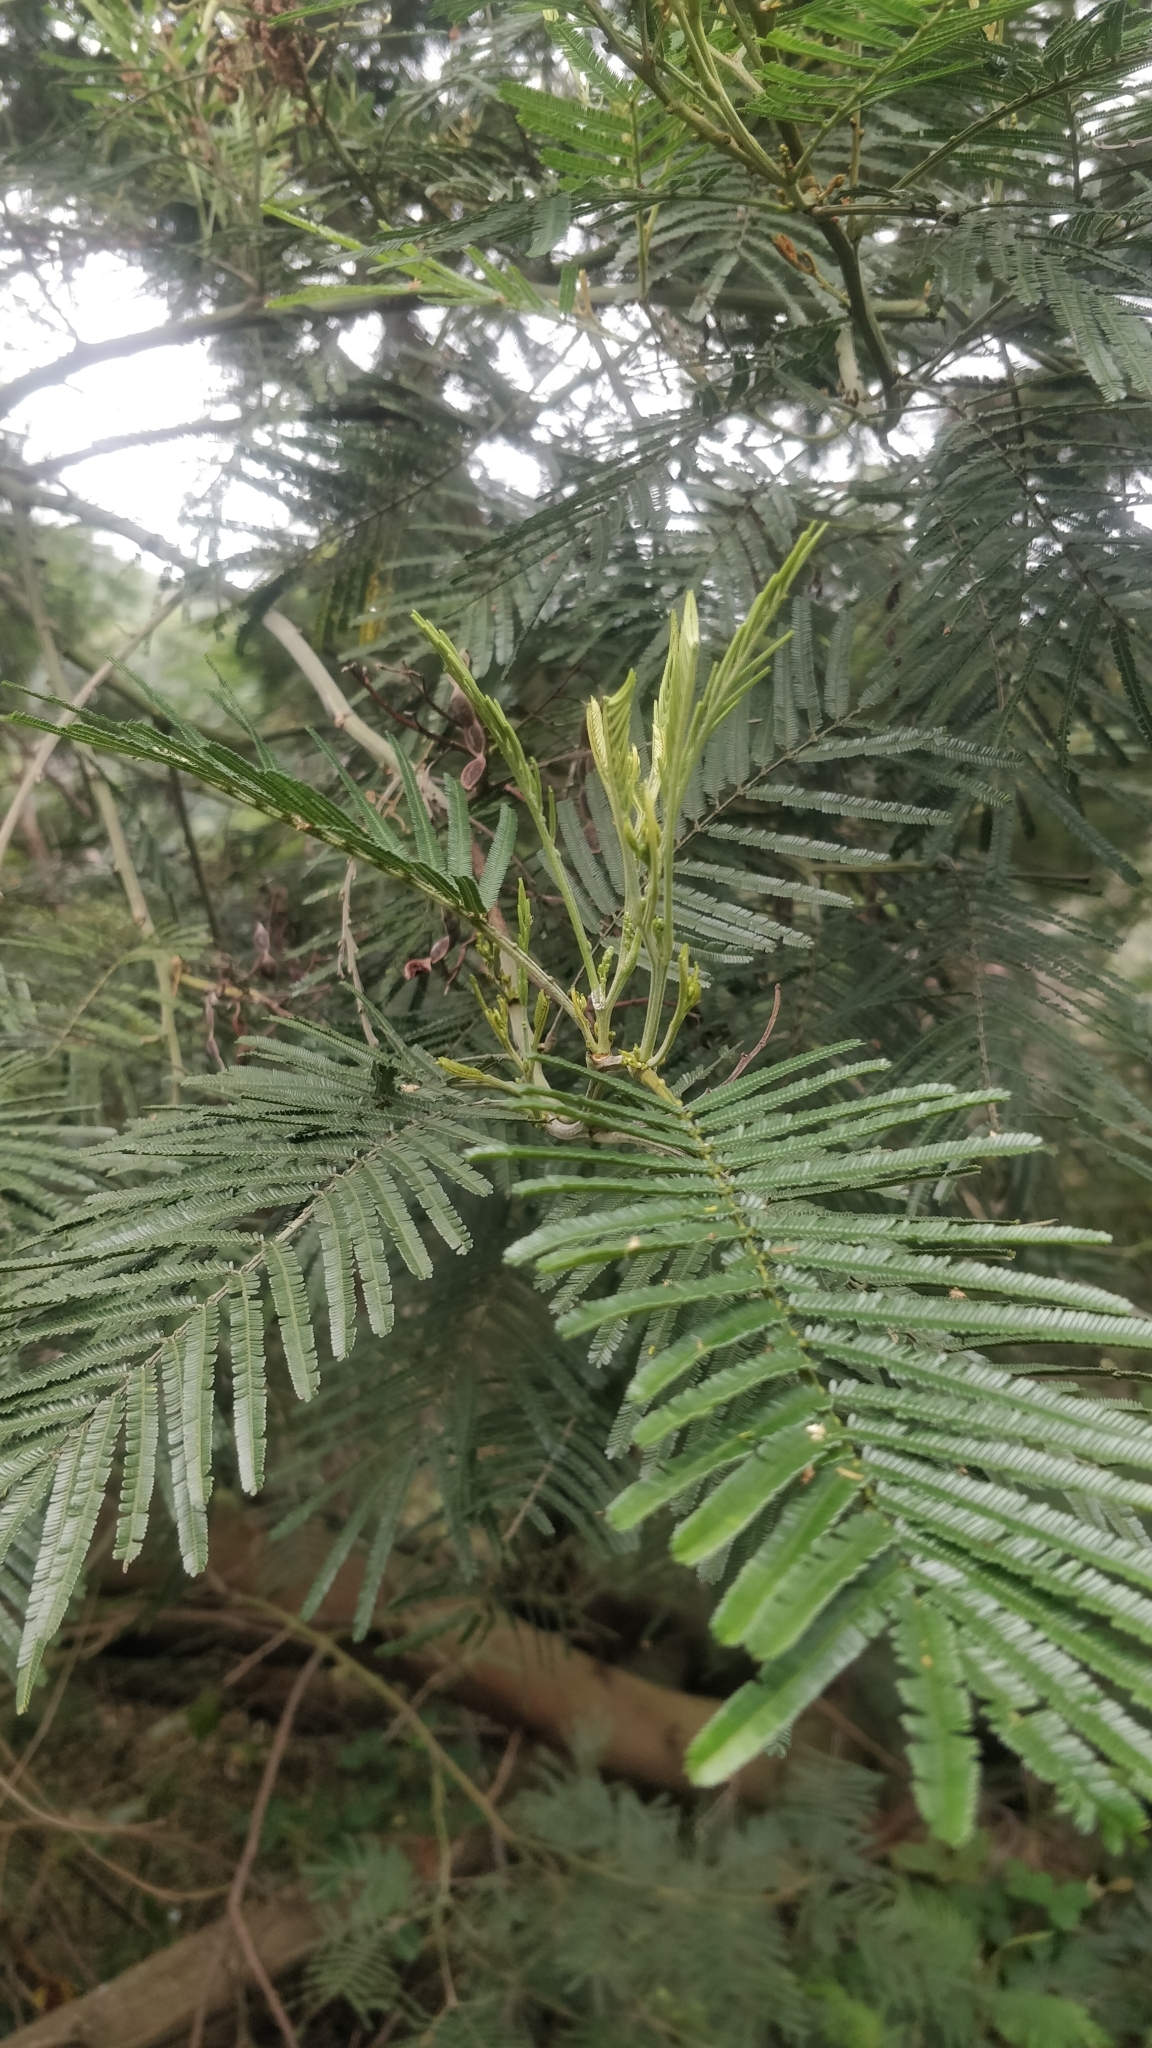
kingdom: Plantae
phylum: Tracheophyta
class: Magnoliopsida
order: Fabales
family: Fabaceae
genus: Acacia
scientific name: Acacia mearnsii
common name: Black wattle
